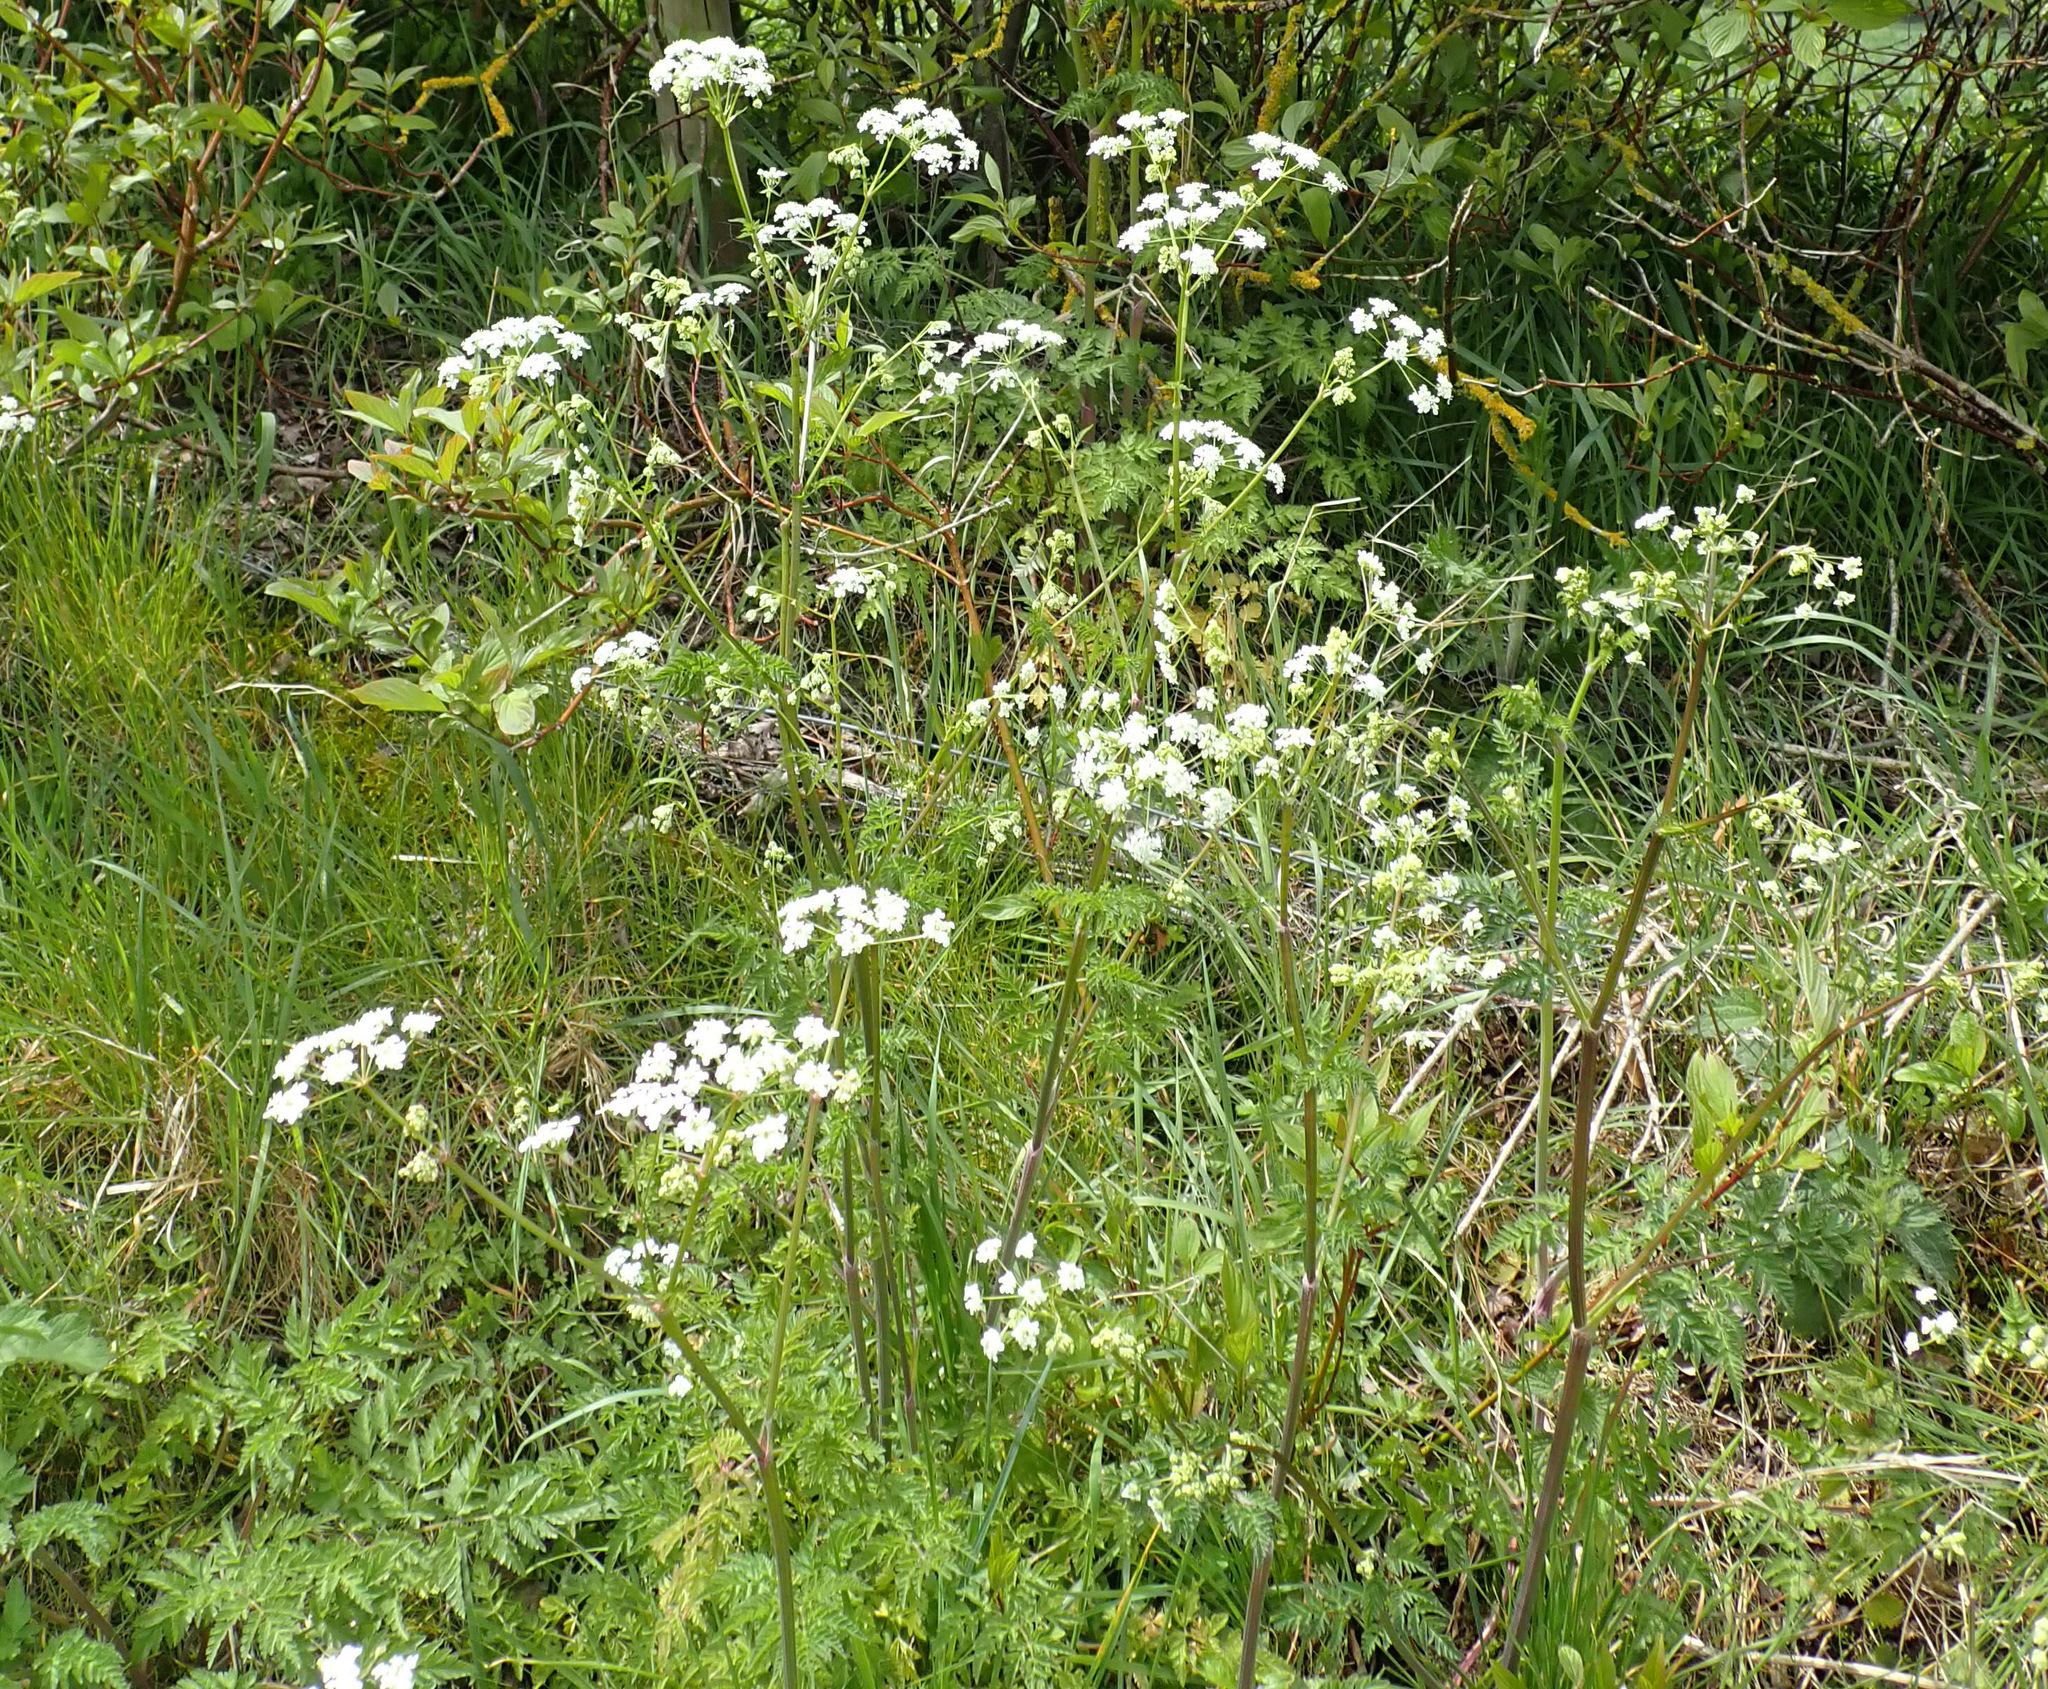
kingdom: Plantae
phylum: Tracheophyta
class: Magnoliopsida
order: Apiales
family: Apiaceae
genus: Anthriscus
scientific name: Anthriscus sylvestris
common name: Cow parsley
